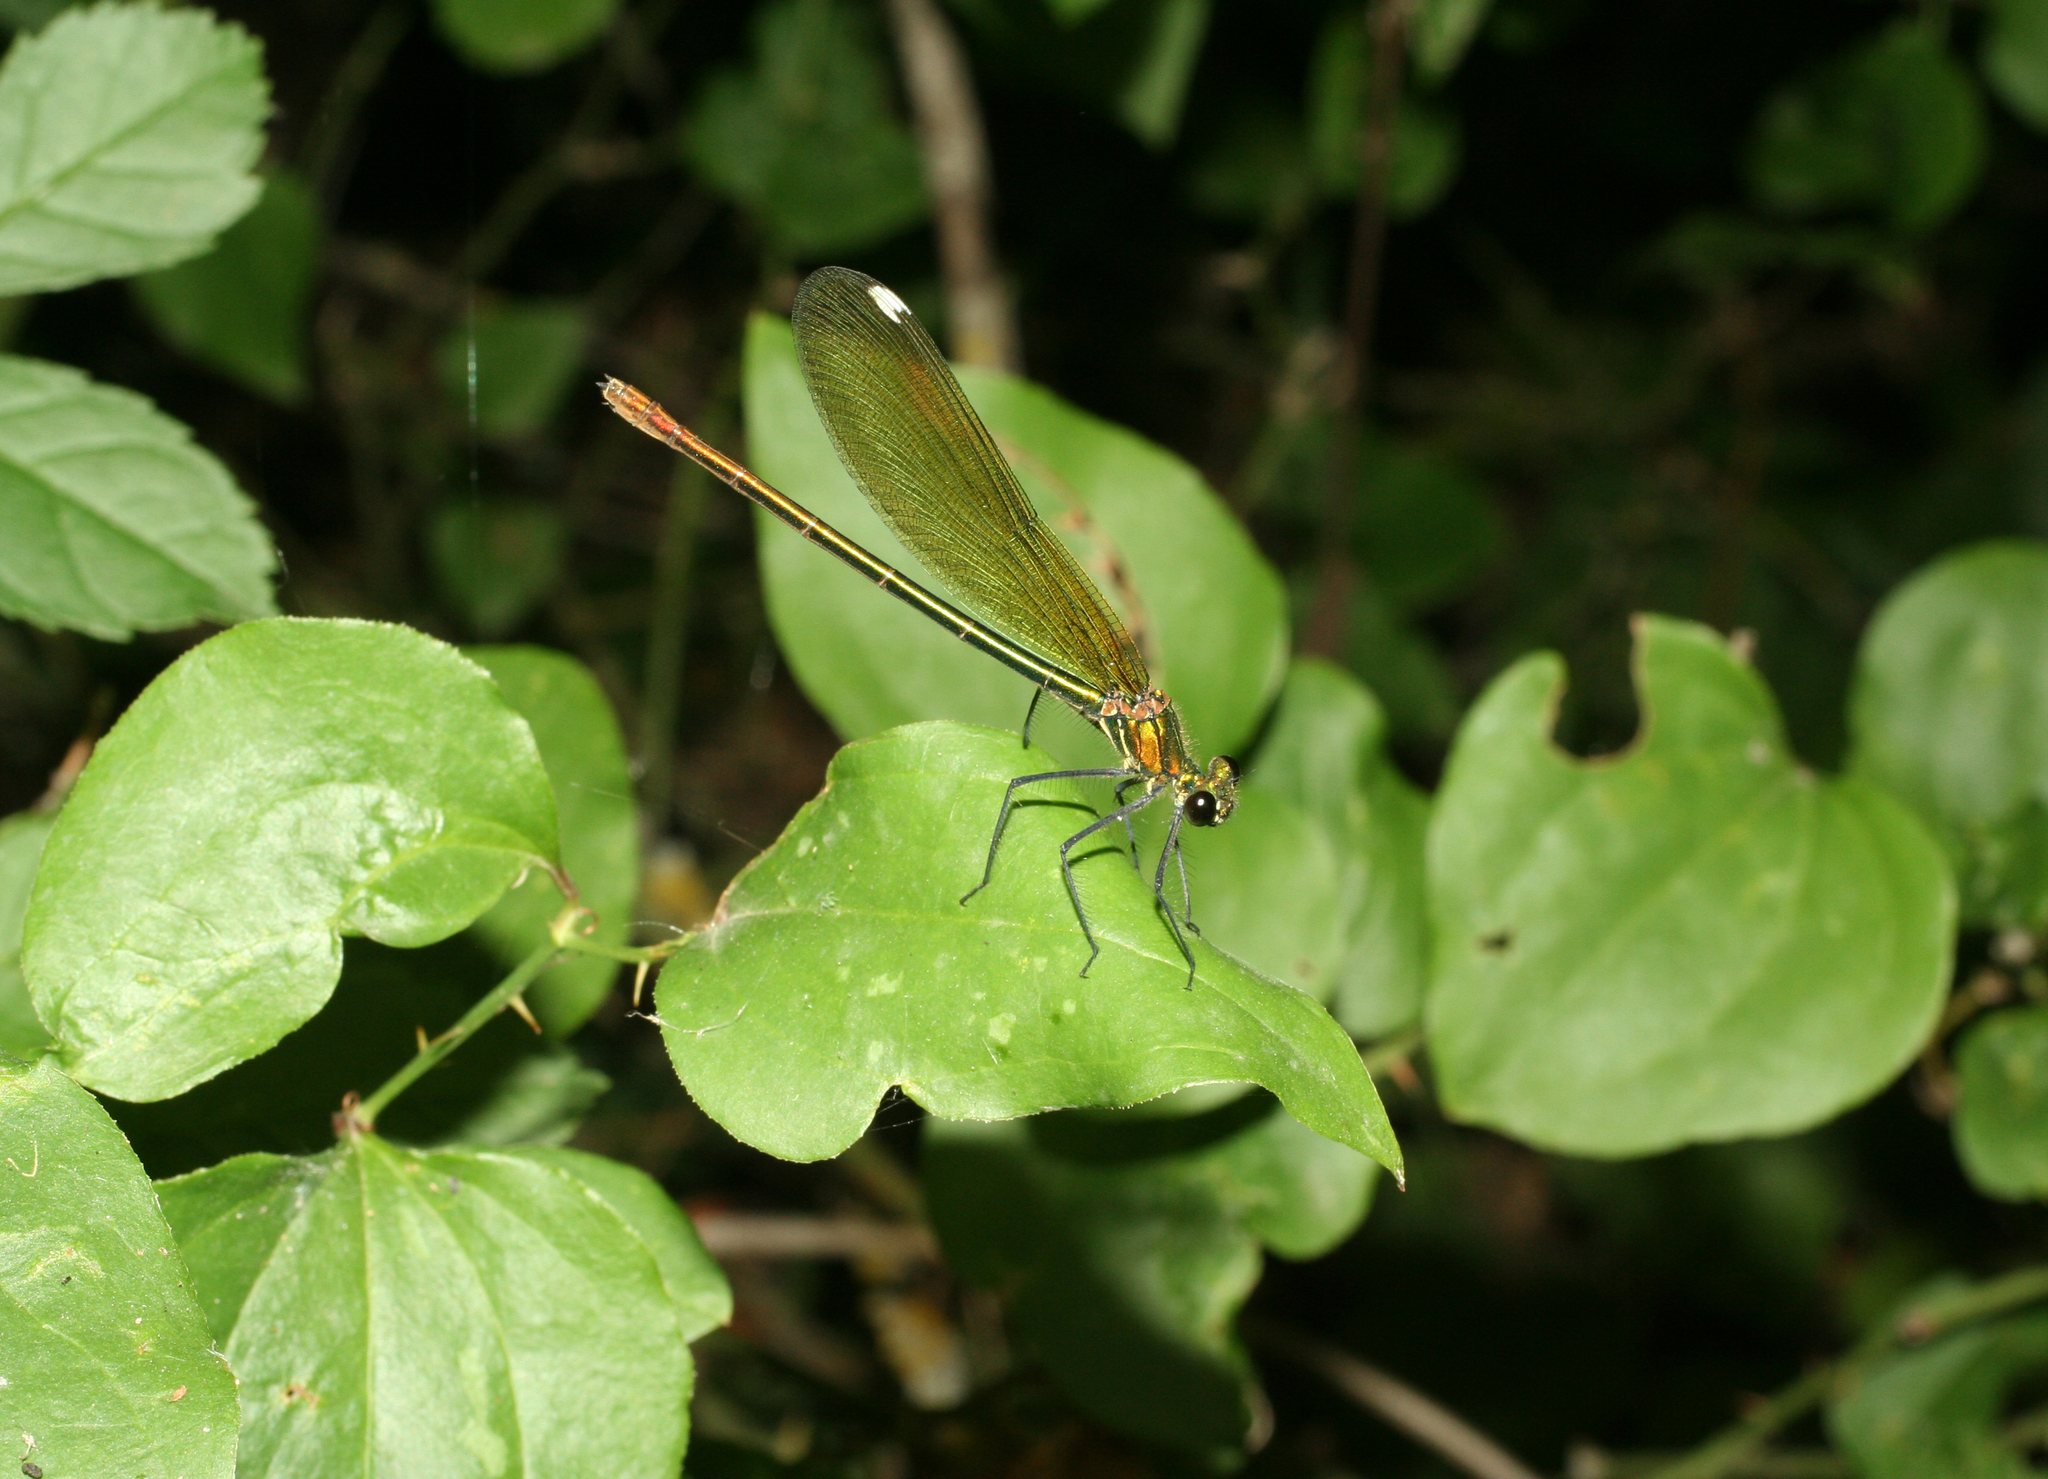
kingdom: Plantae
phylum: Tracheophyta
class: Liliopsida
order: Liliales
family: Smilacaceae
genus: Smilax
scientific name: Smilax excelsa
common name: Larger smilax
